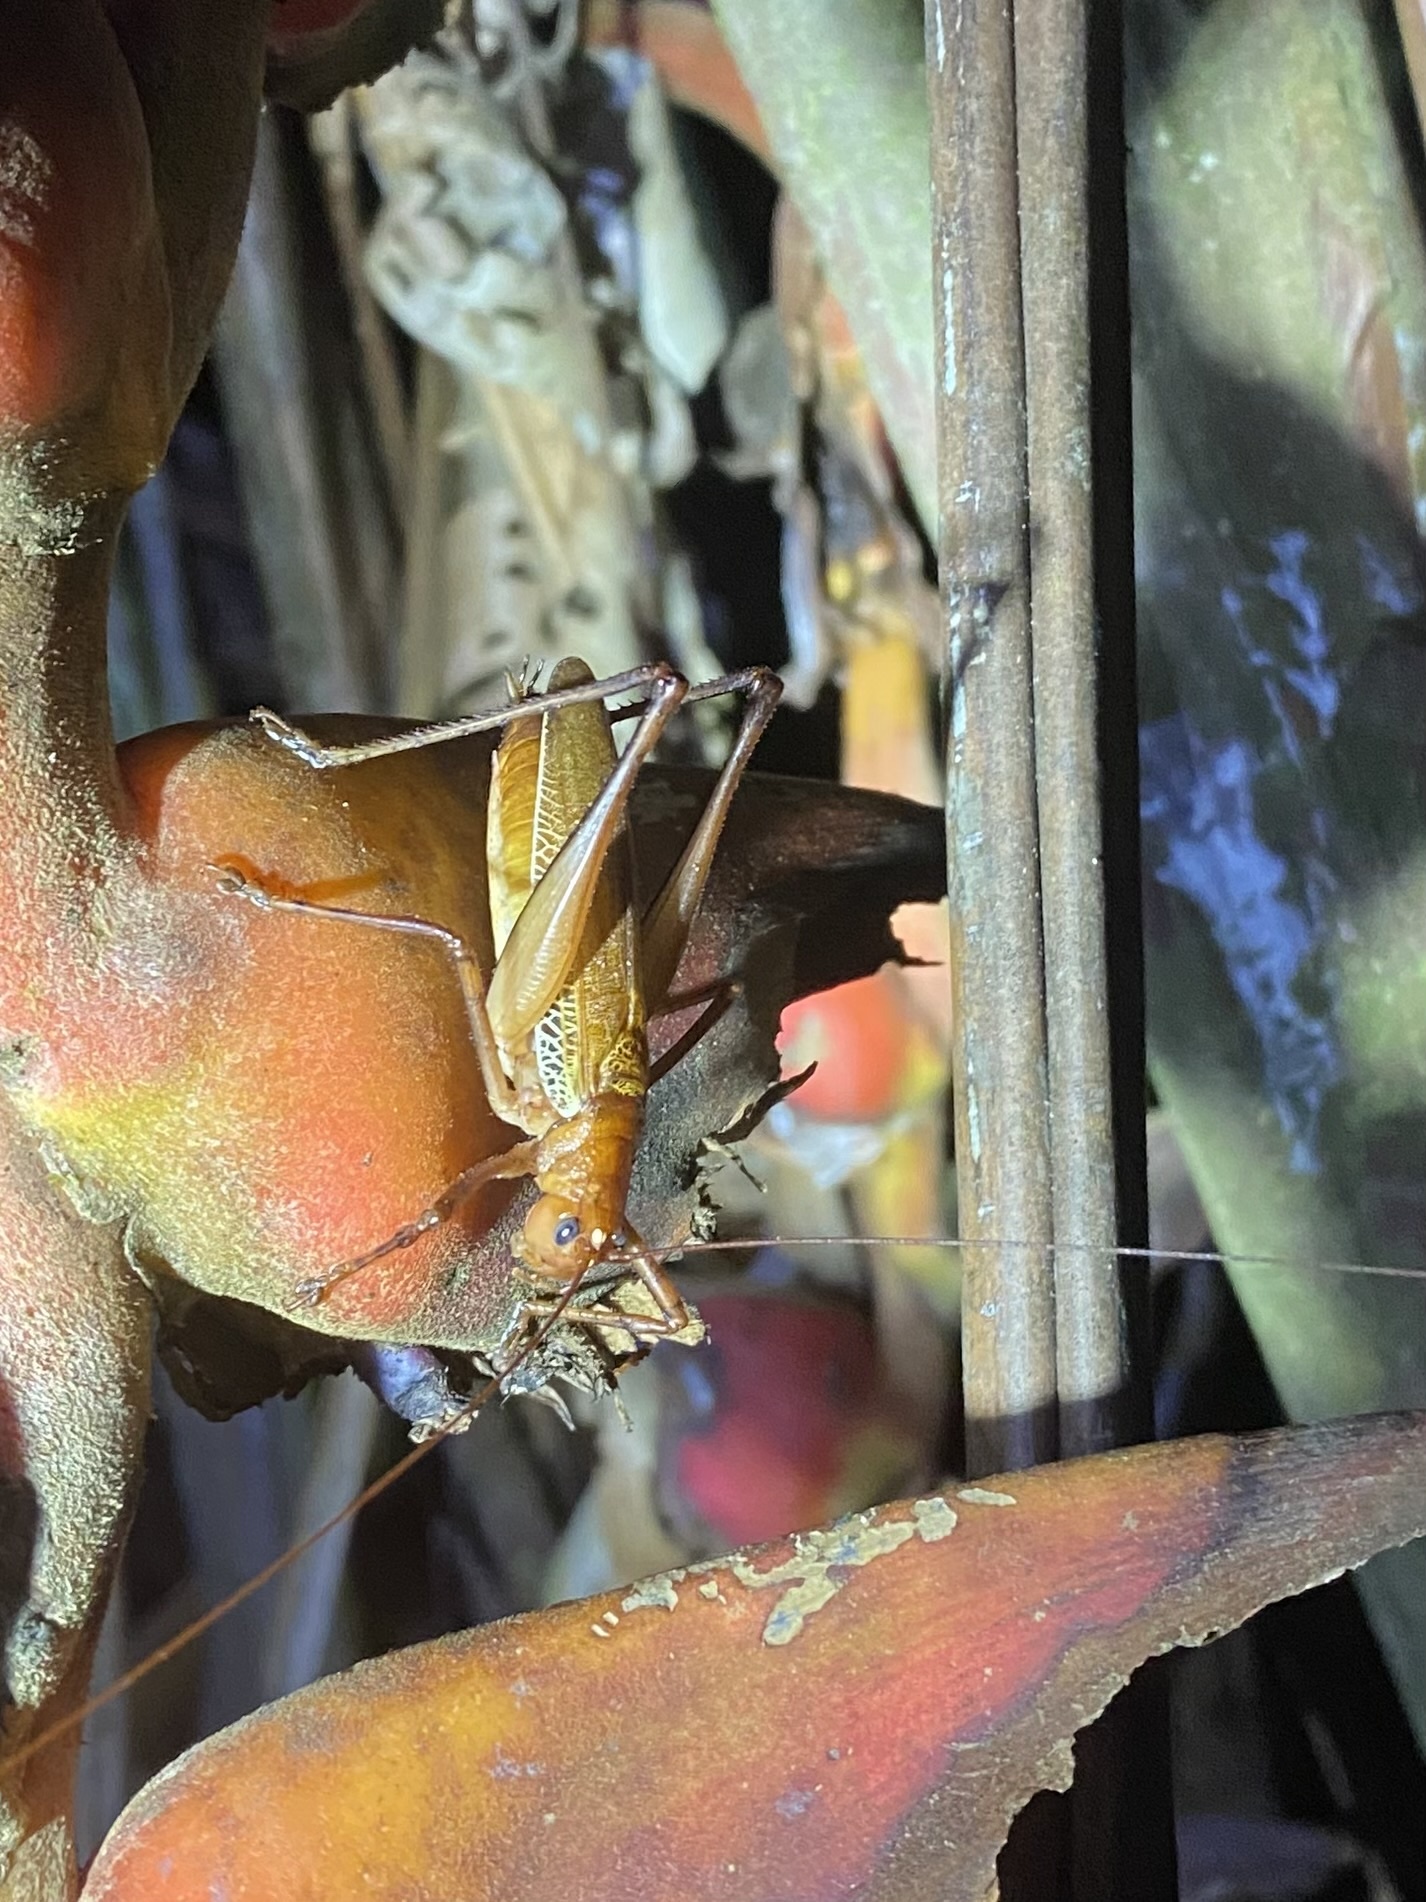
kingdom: Animalia
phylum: Arthropoda
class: Insecta
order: Orthoptera
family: Tettigoniidae
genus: Ischnomela
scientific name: Ischnomela pulchripennis
